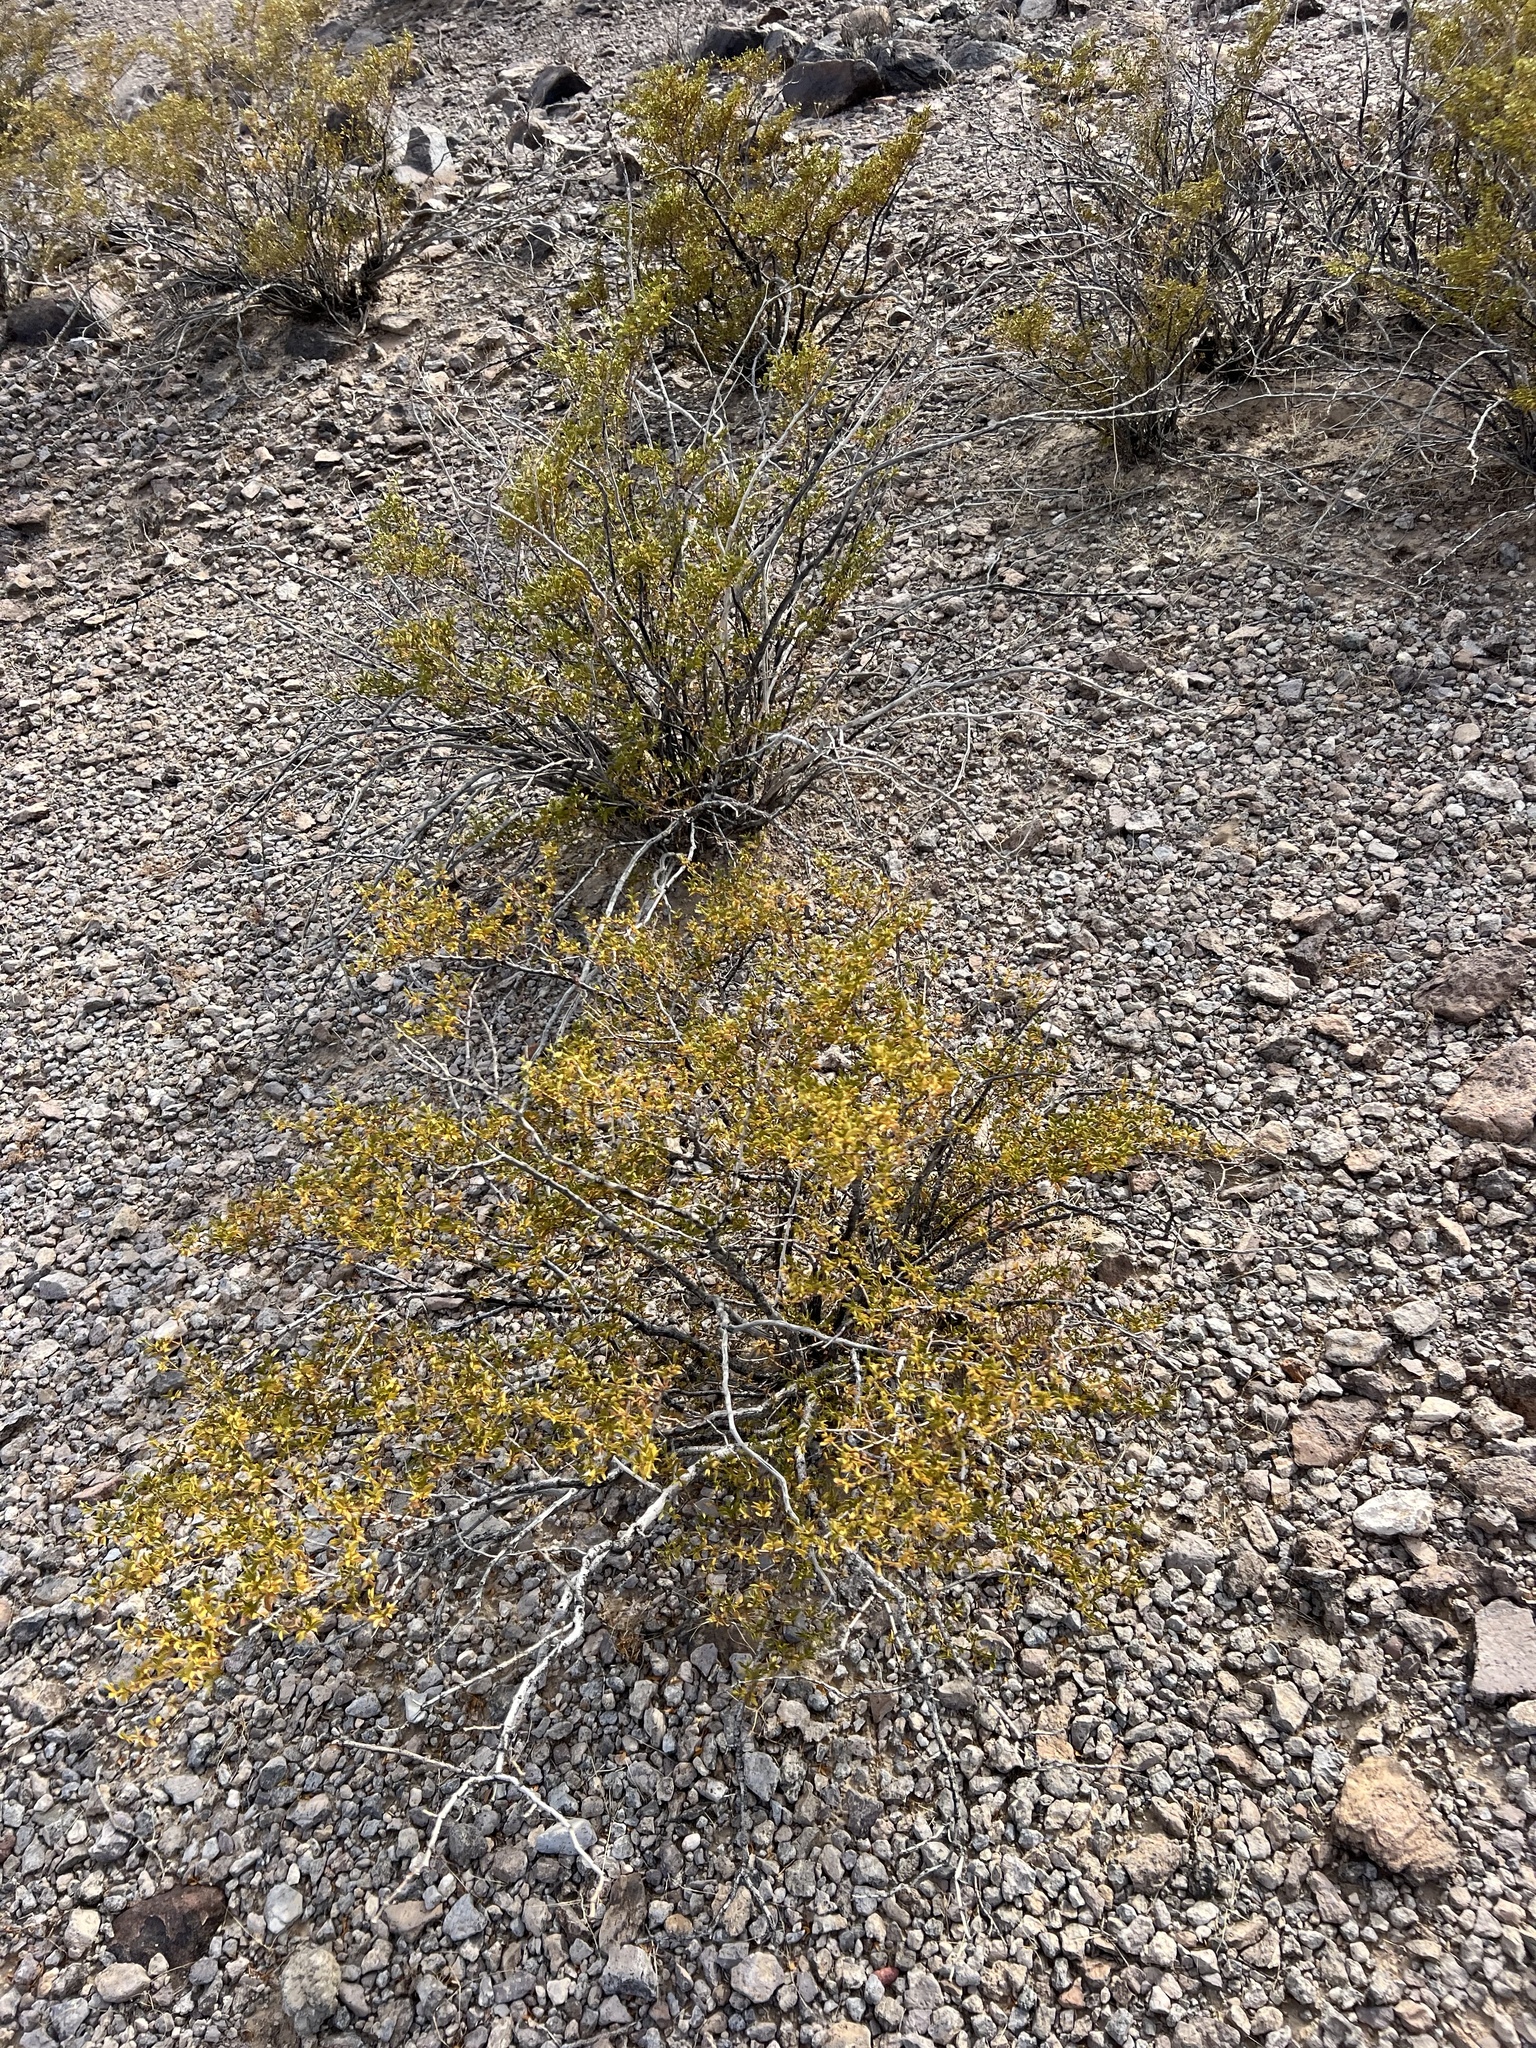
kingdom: Plantae
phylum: Tracheophyta
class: Magnoliopsida
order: Zygophyllales
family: Zygophyllaceae
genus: Larrea
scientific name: Larrea tridentata
